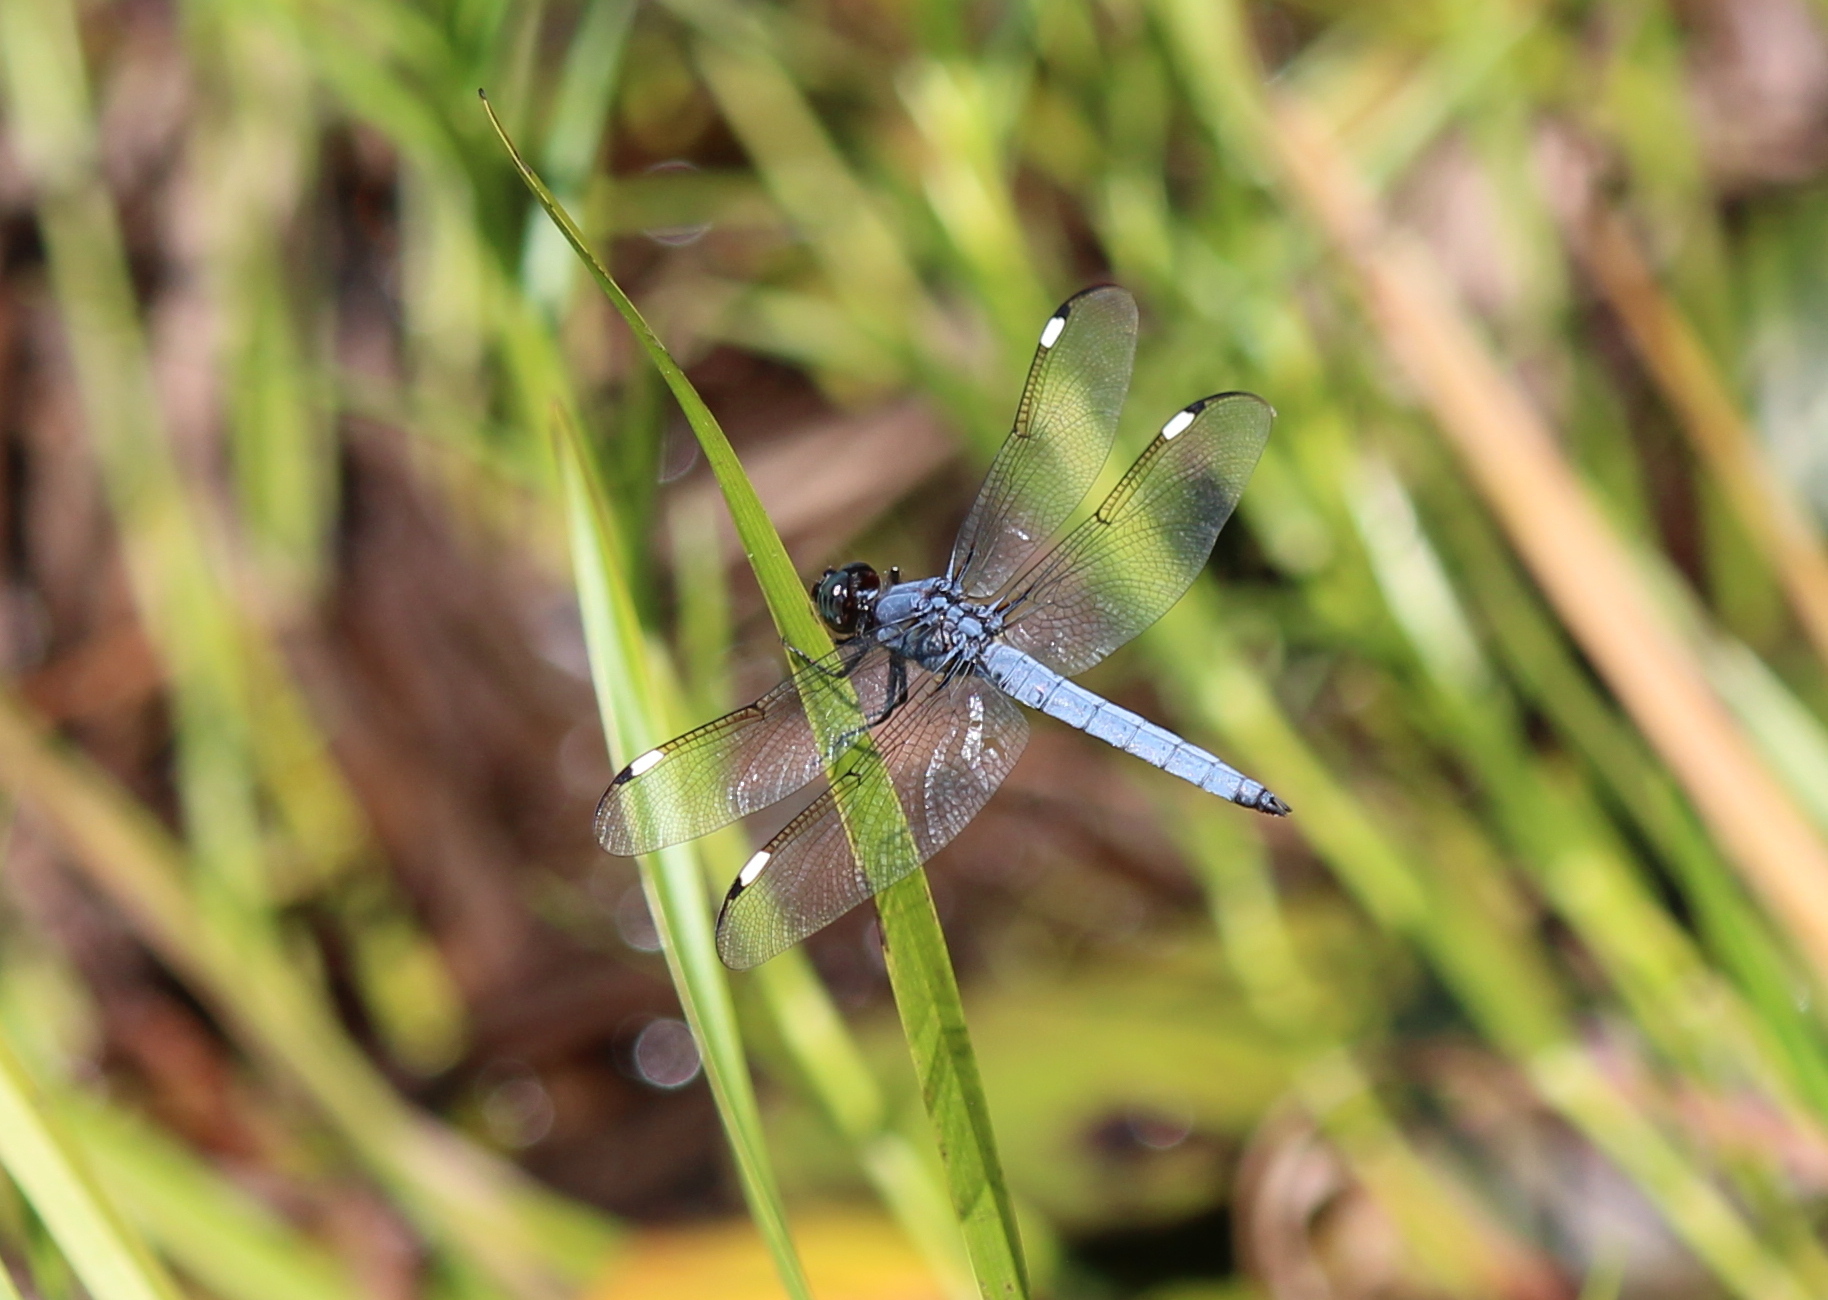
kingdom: Animalia
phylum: Arthropoda
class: Insecta
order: Odonata
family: Libellulidae
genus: Libellula
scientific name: Libellula cyanea
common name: Spangled skimmer
